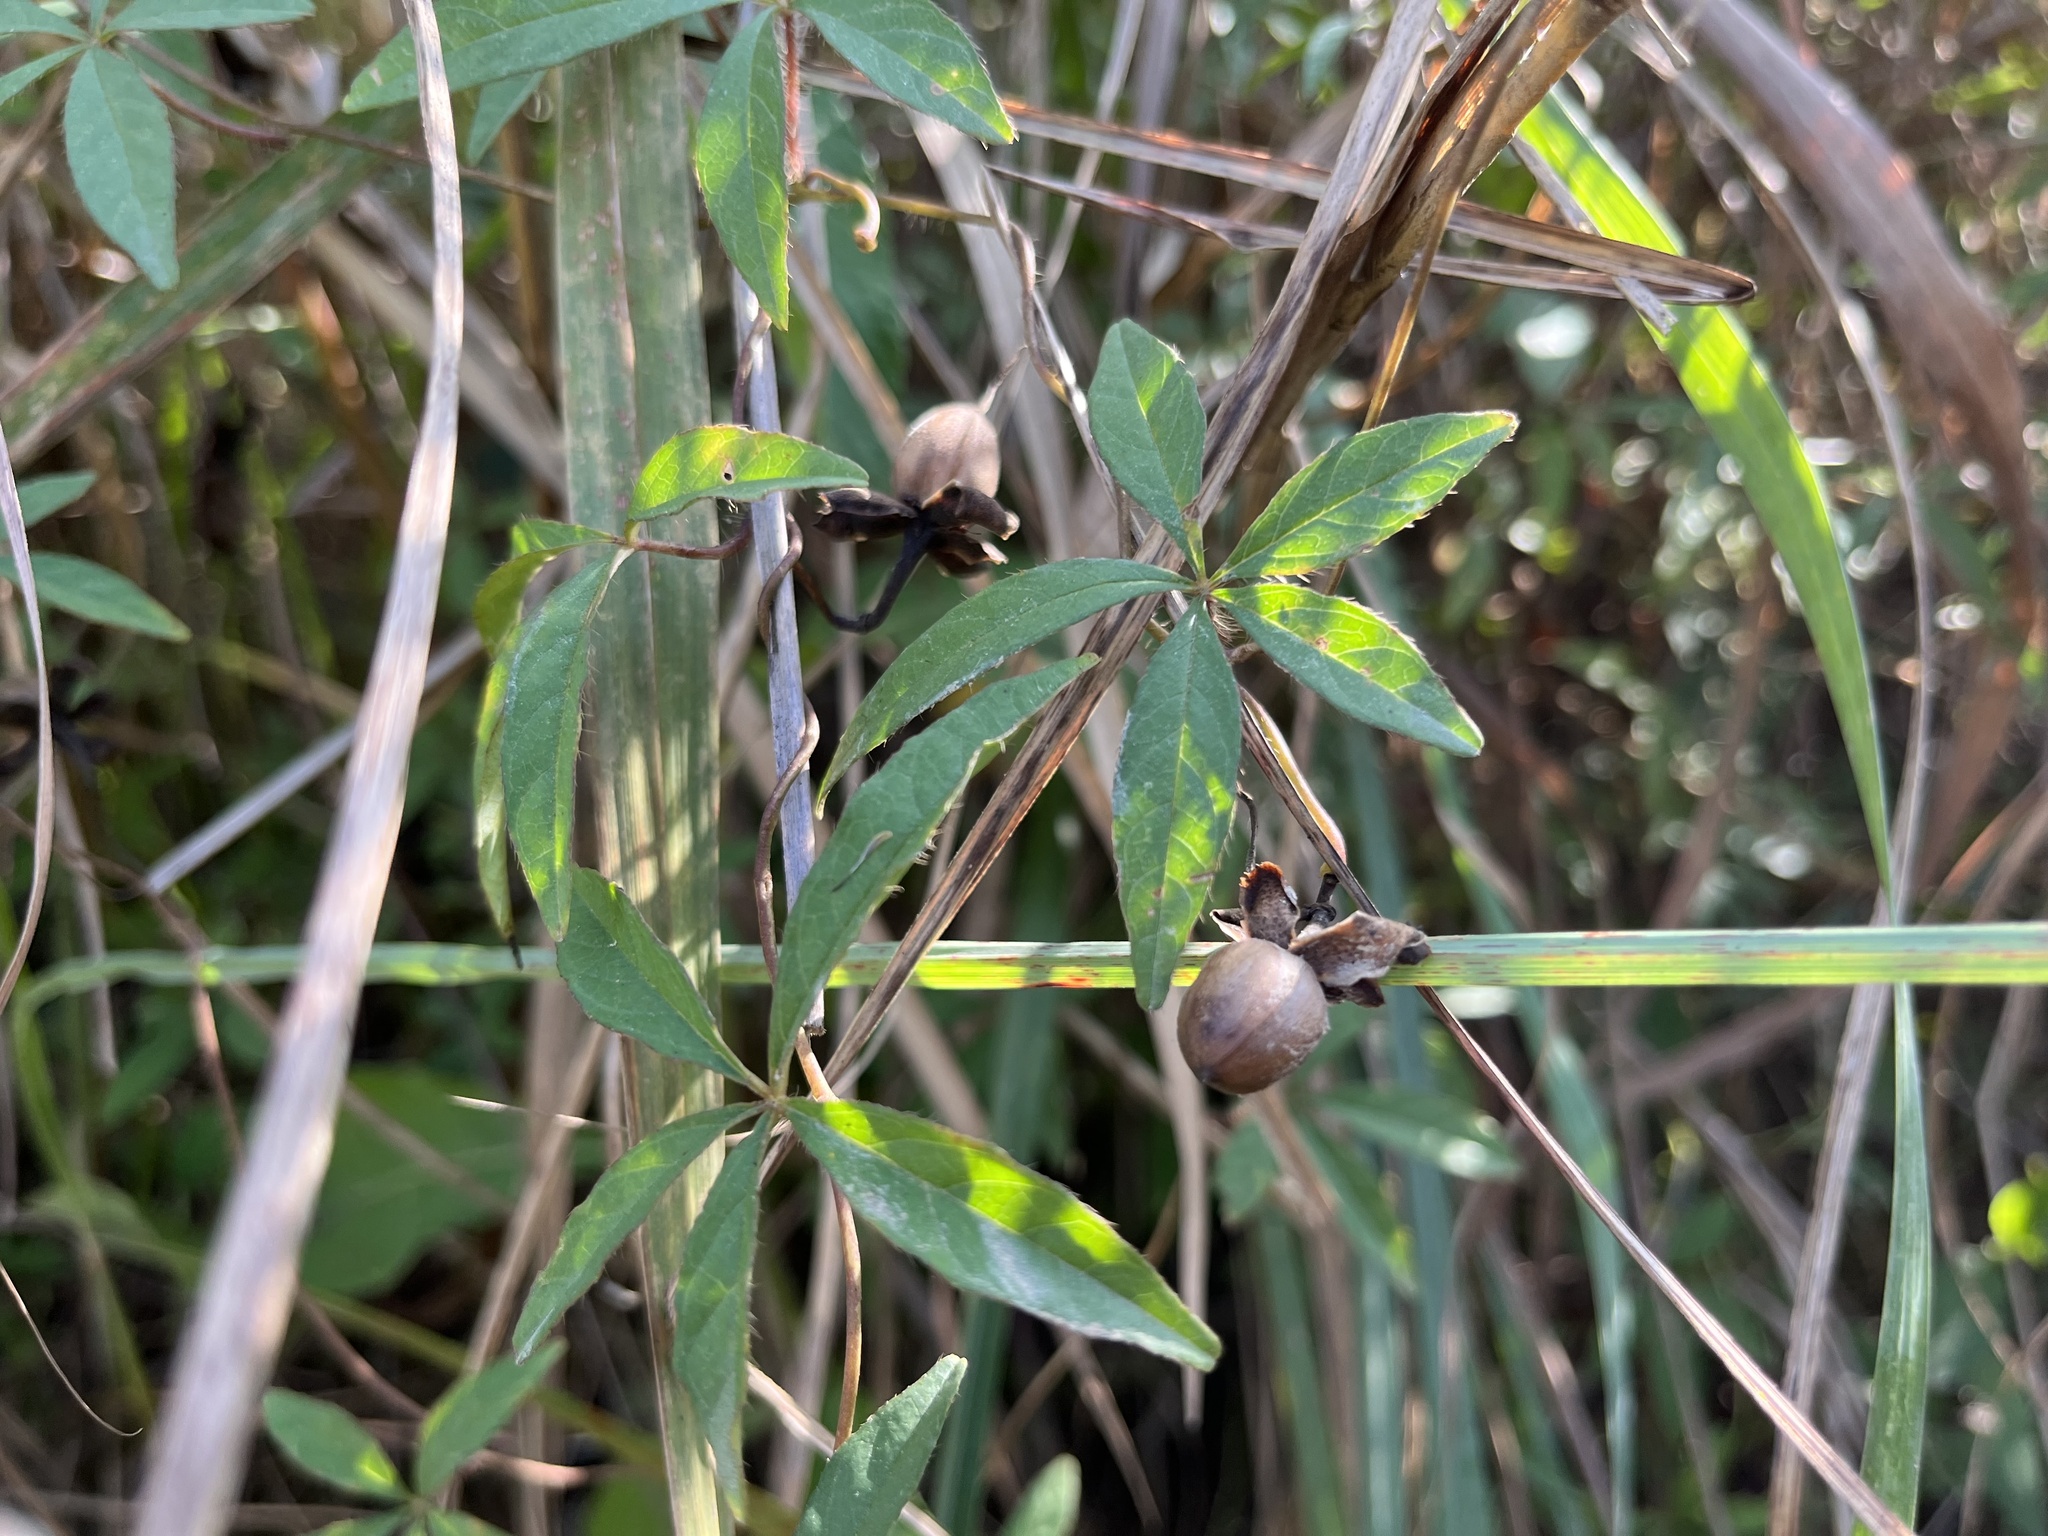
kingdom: Plantae
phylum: Tracheophyta
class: Magnoliopsida
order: Solanales
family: Convolvulaceae
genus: Distimake
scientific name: Distimake quinatus
